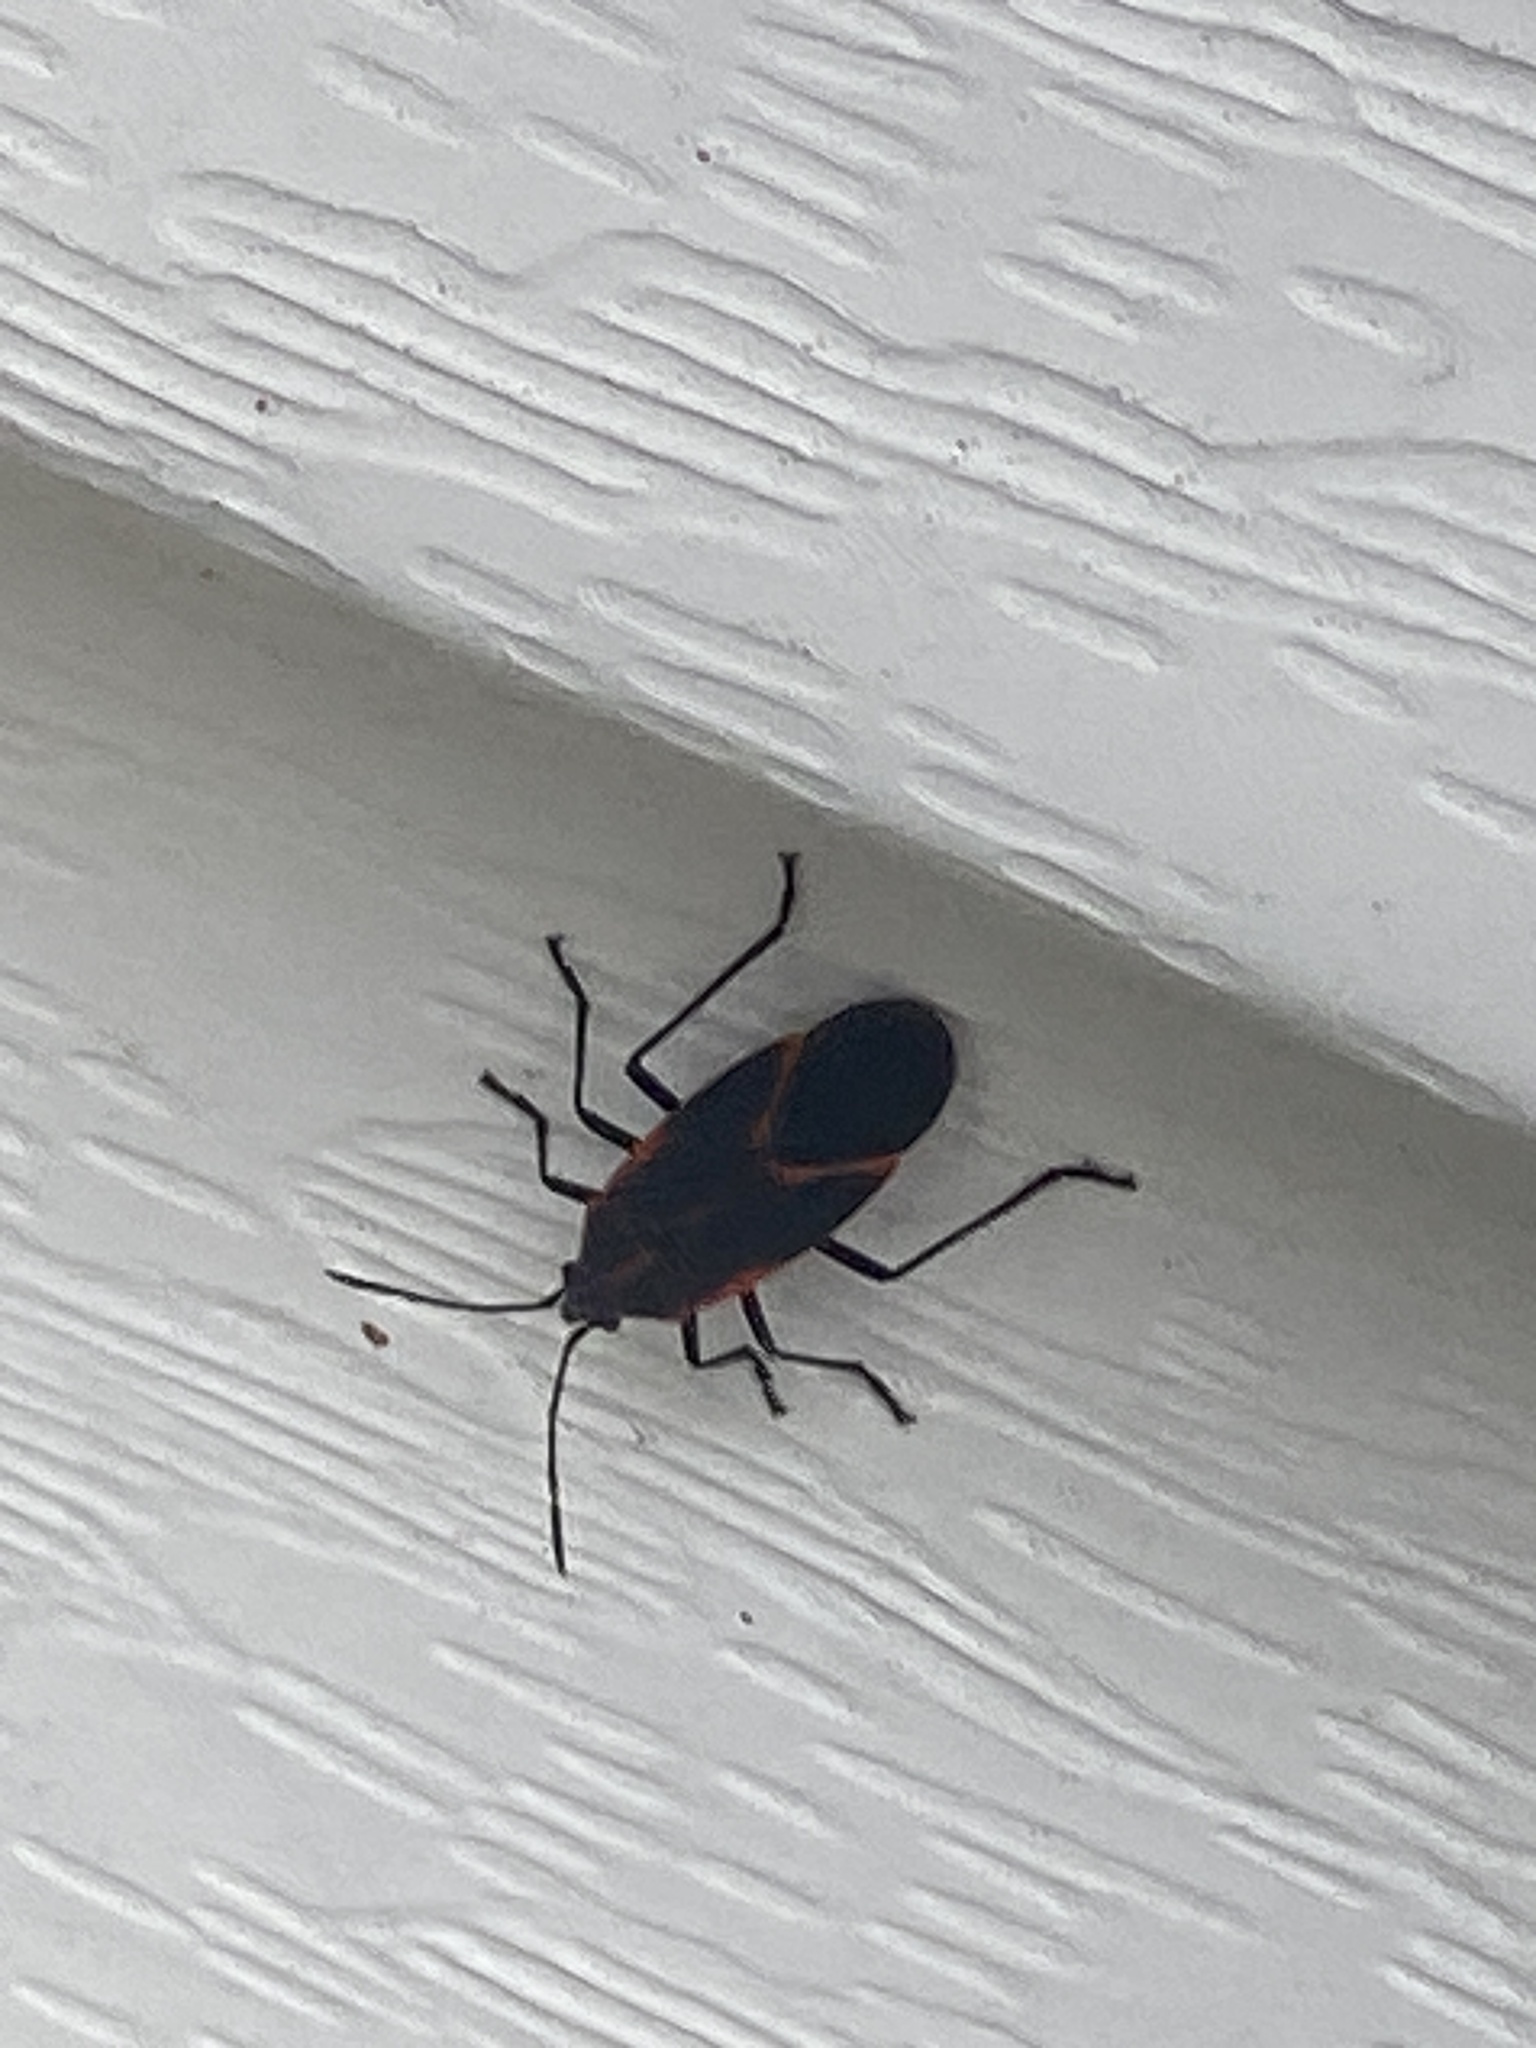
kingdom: Animalia
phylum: Arthropoda
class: Insecta
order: Hemiptera
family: Rhopalidae
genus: Boisea
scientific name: Boisea trivittata
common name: Boxelder bug
